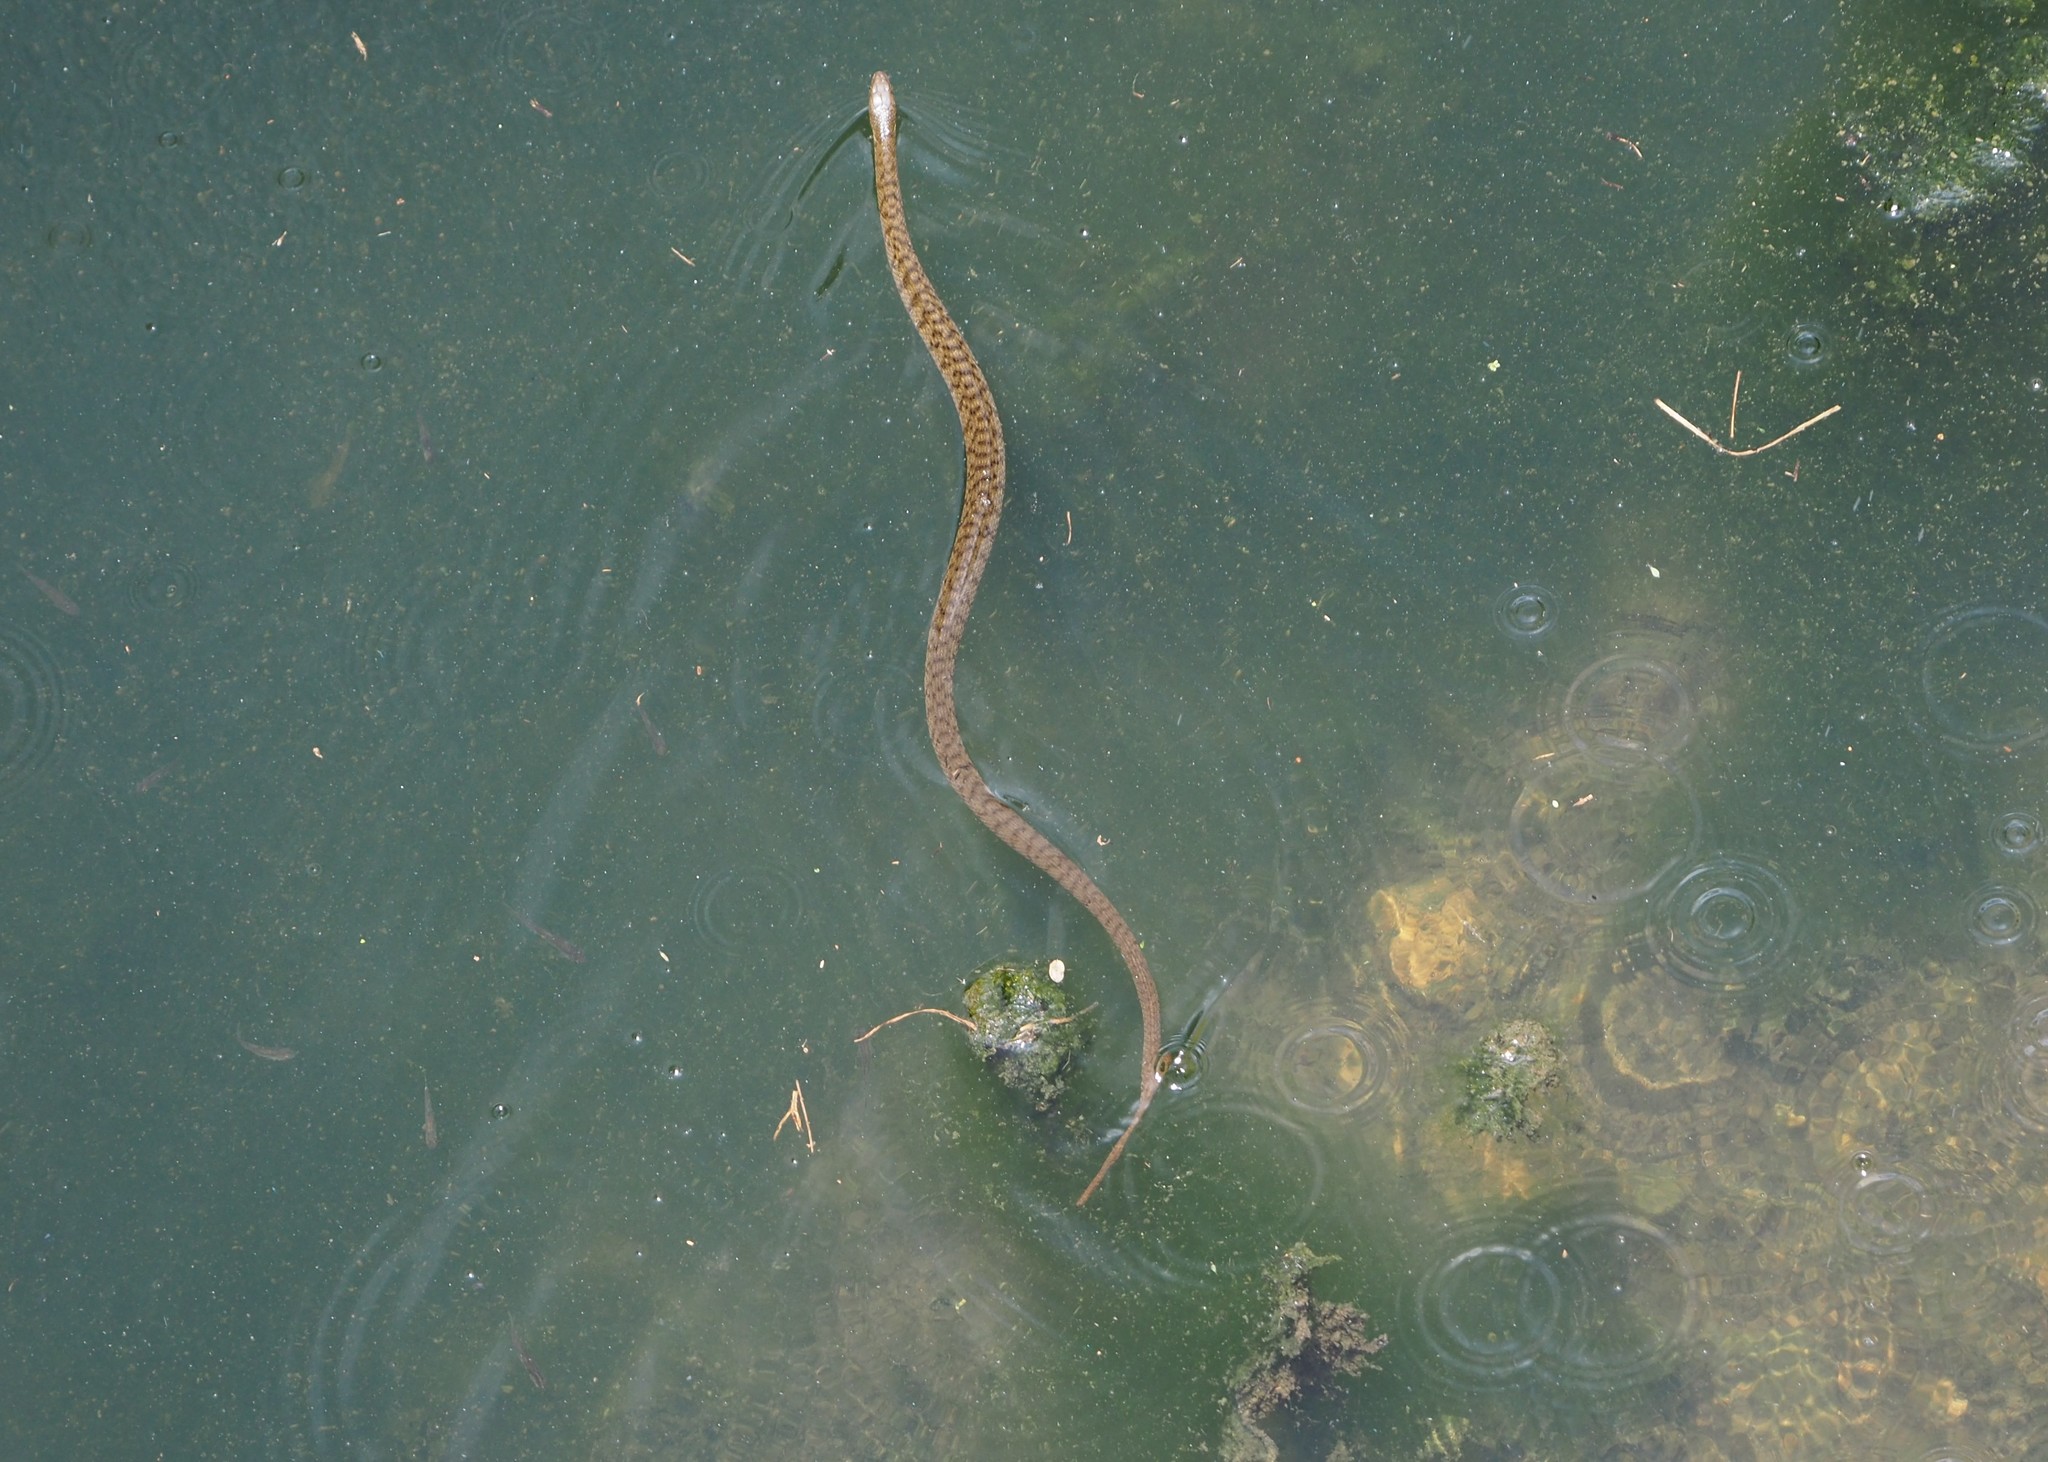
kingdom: Animalia
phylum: Chordata
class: Squamata
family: Colubridae
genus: Trimerodytes
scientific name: Trimerodytes percarinatus
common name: Eastern water snake
